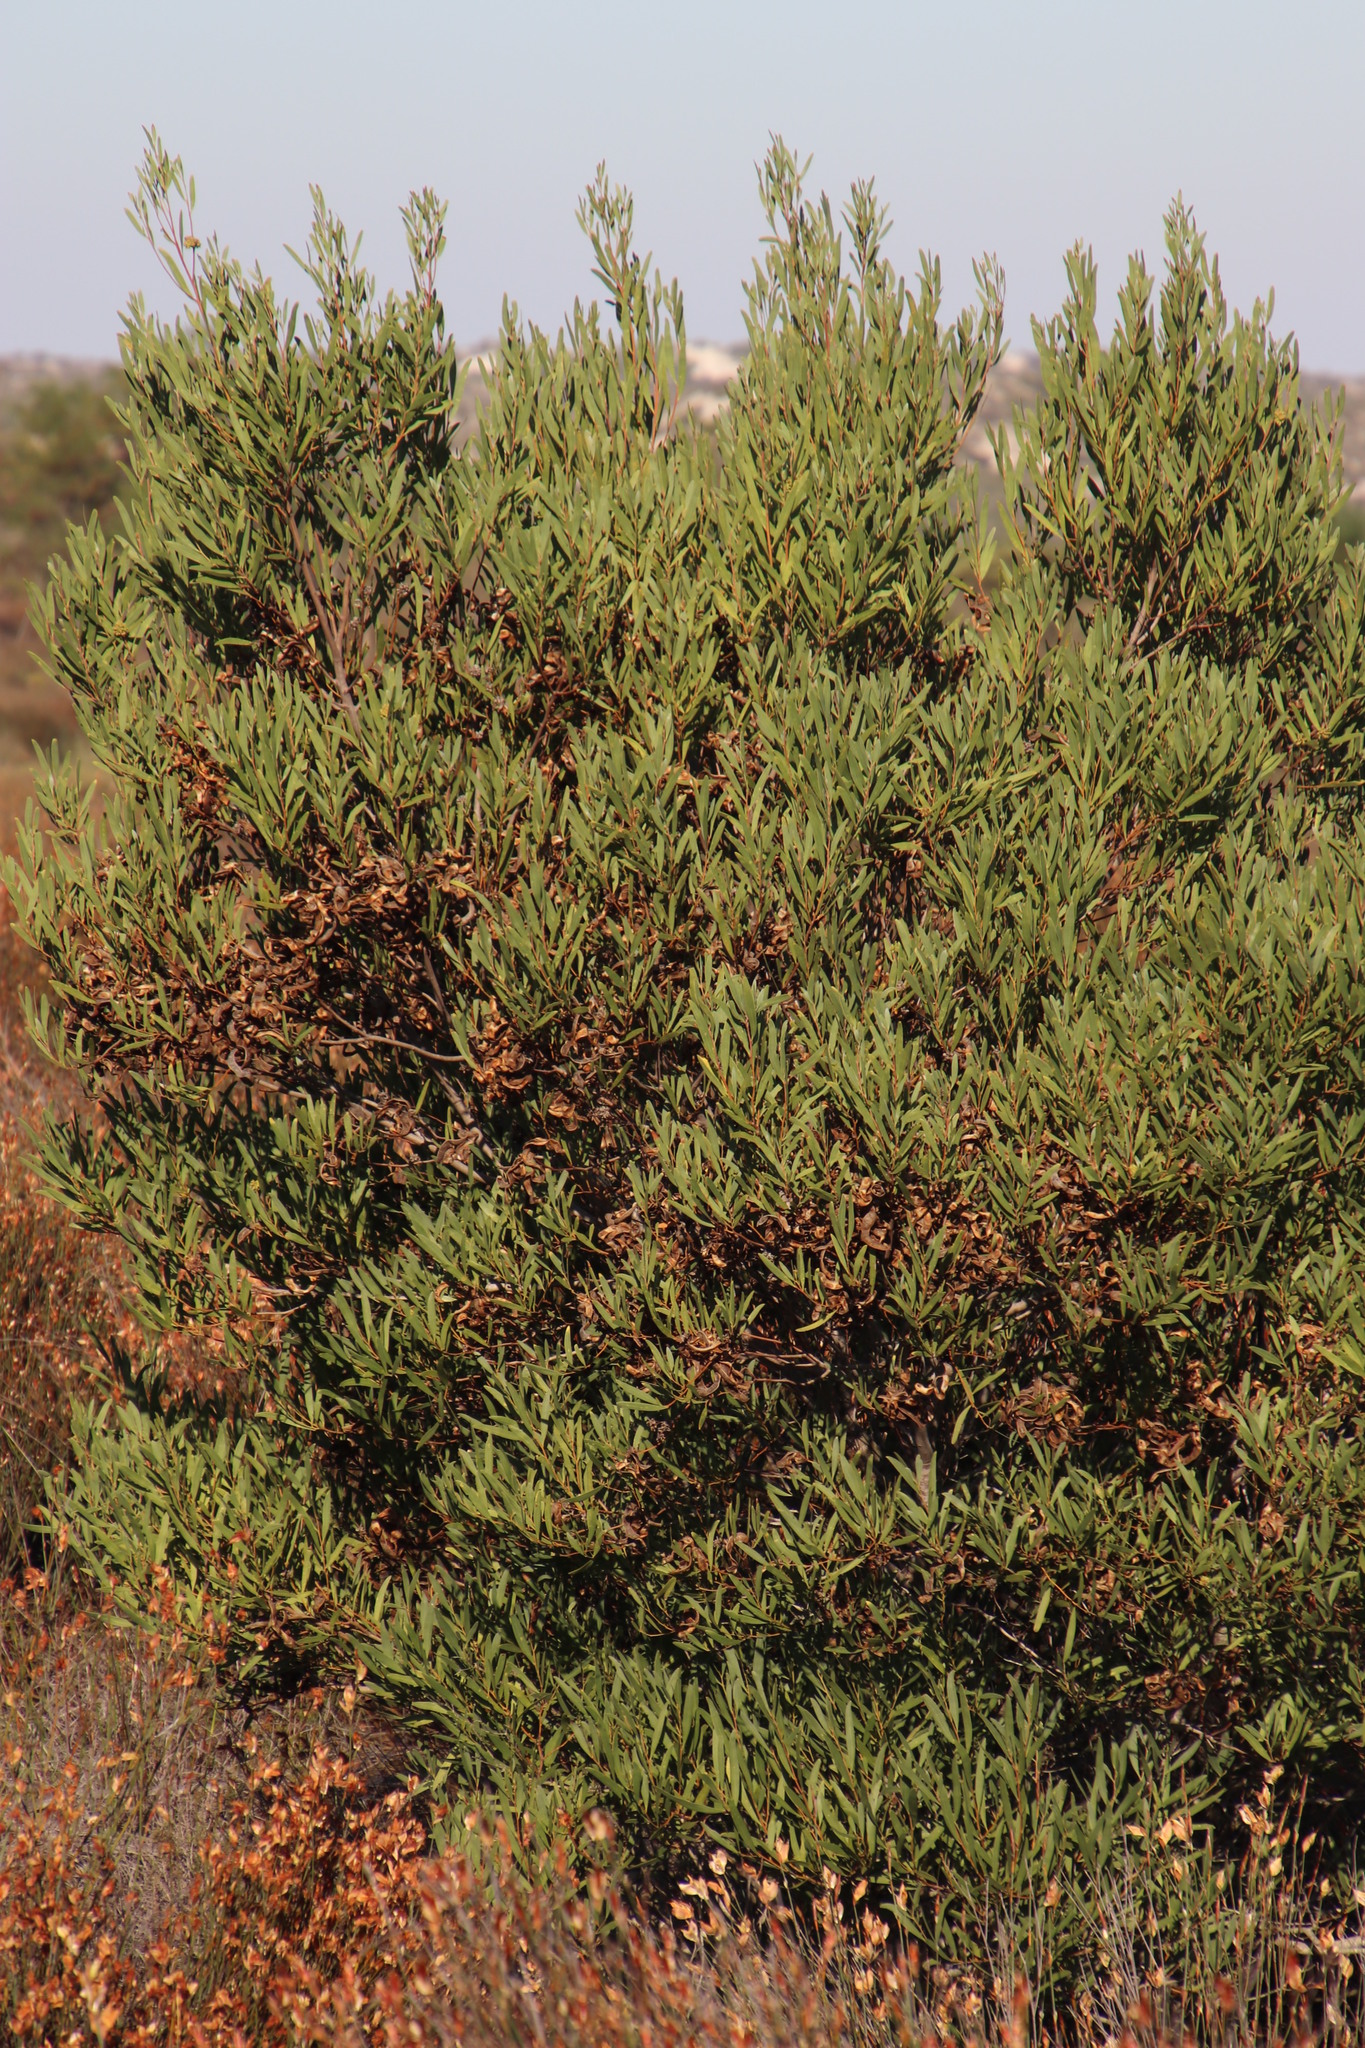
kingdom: Plantae
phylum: Tracheophyta
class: Magnoliopsida
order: Fabales
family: Fabaceae
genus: Acacia
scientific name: Acacia cyclops
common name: Coastal wattle
